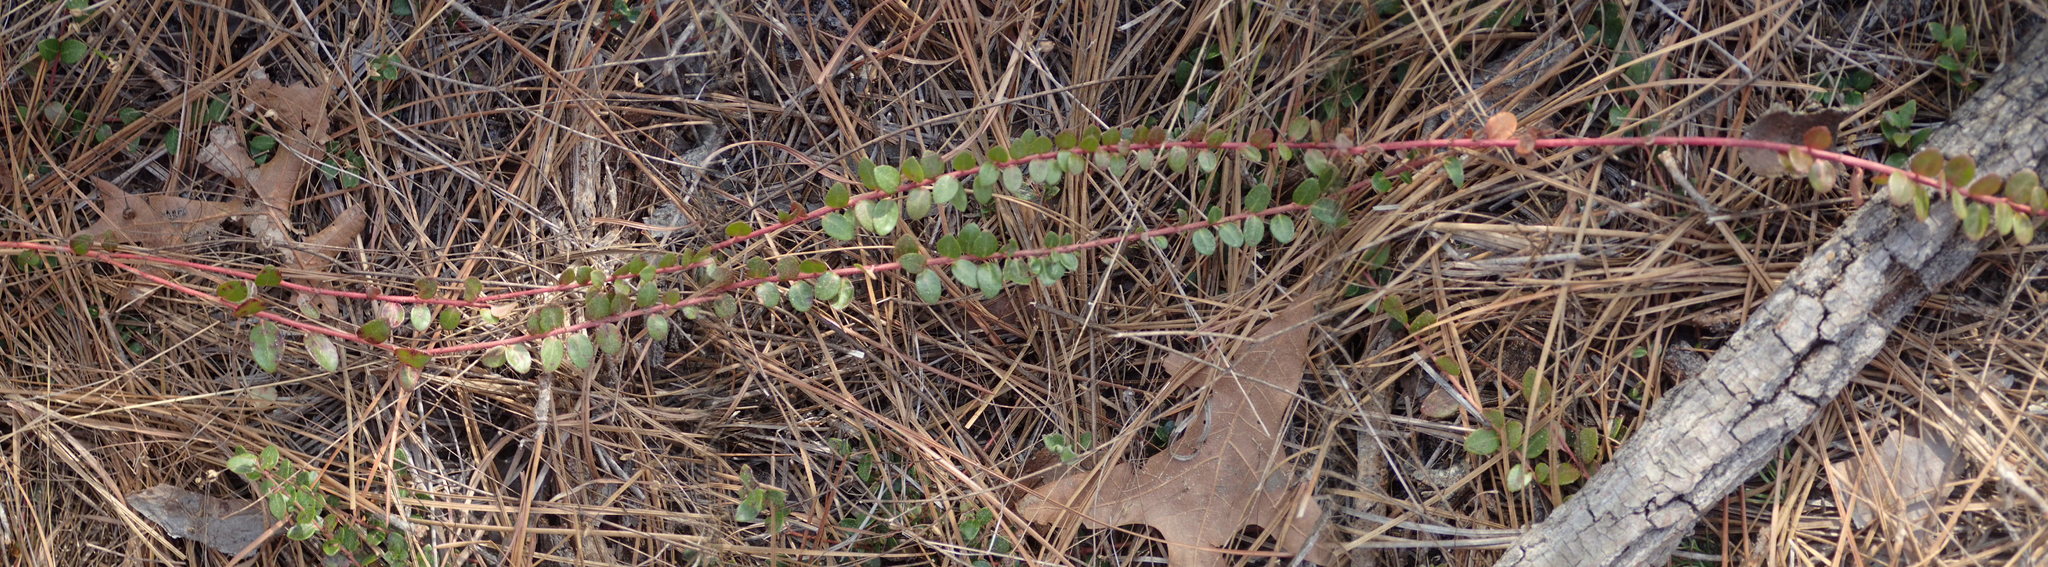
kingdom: Plantae
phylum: Tracheophyta
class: Magnoliopsida
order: Ericales
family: Ericaceae
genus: Vaccinium
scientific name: Vaccinium crassifolium
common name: Creeping blueberry
